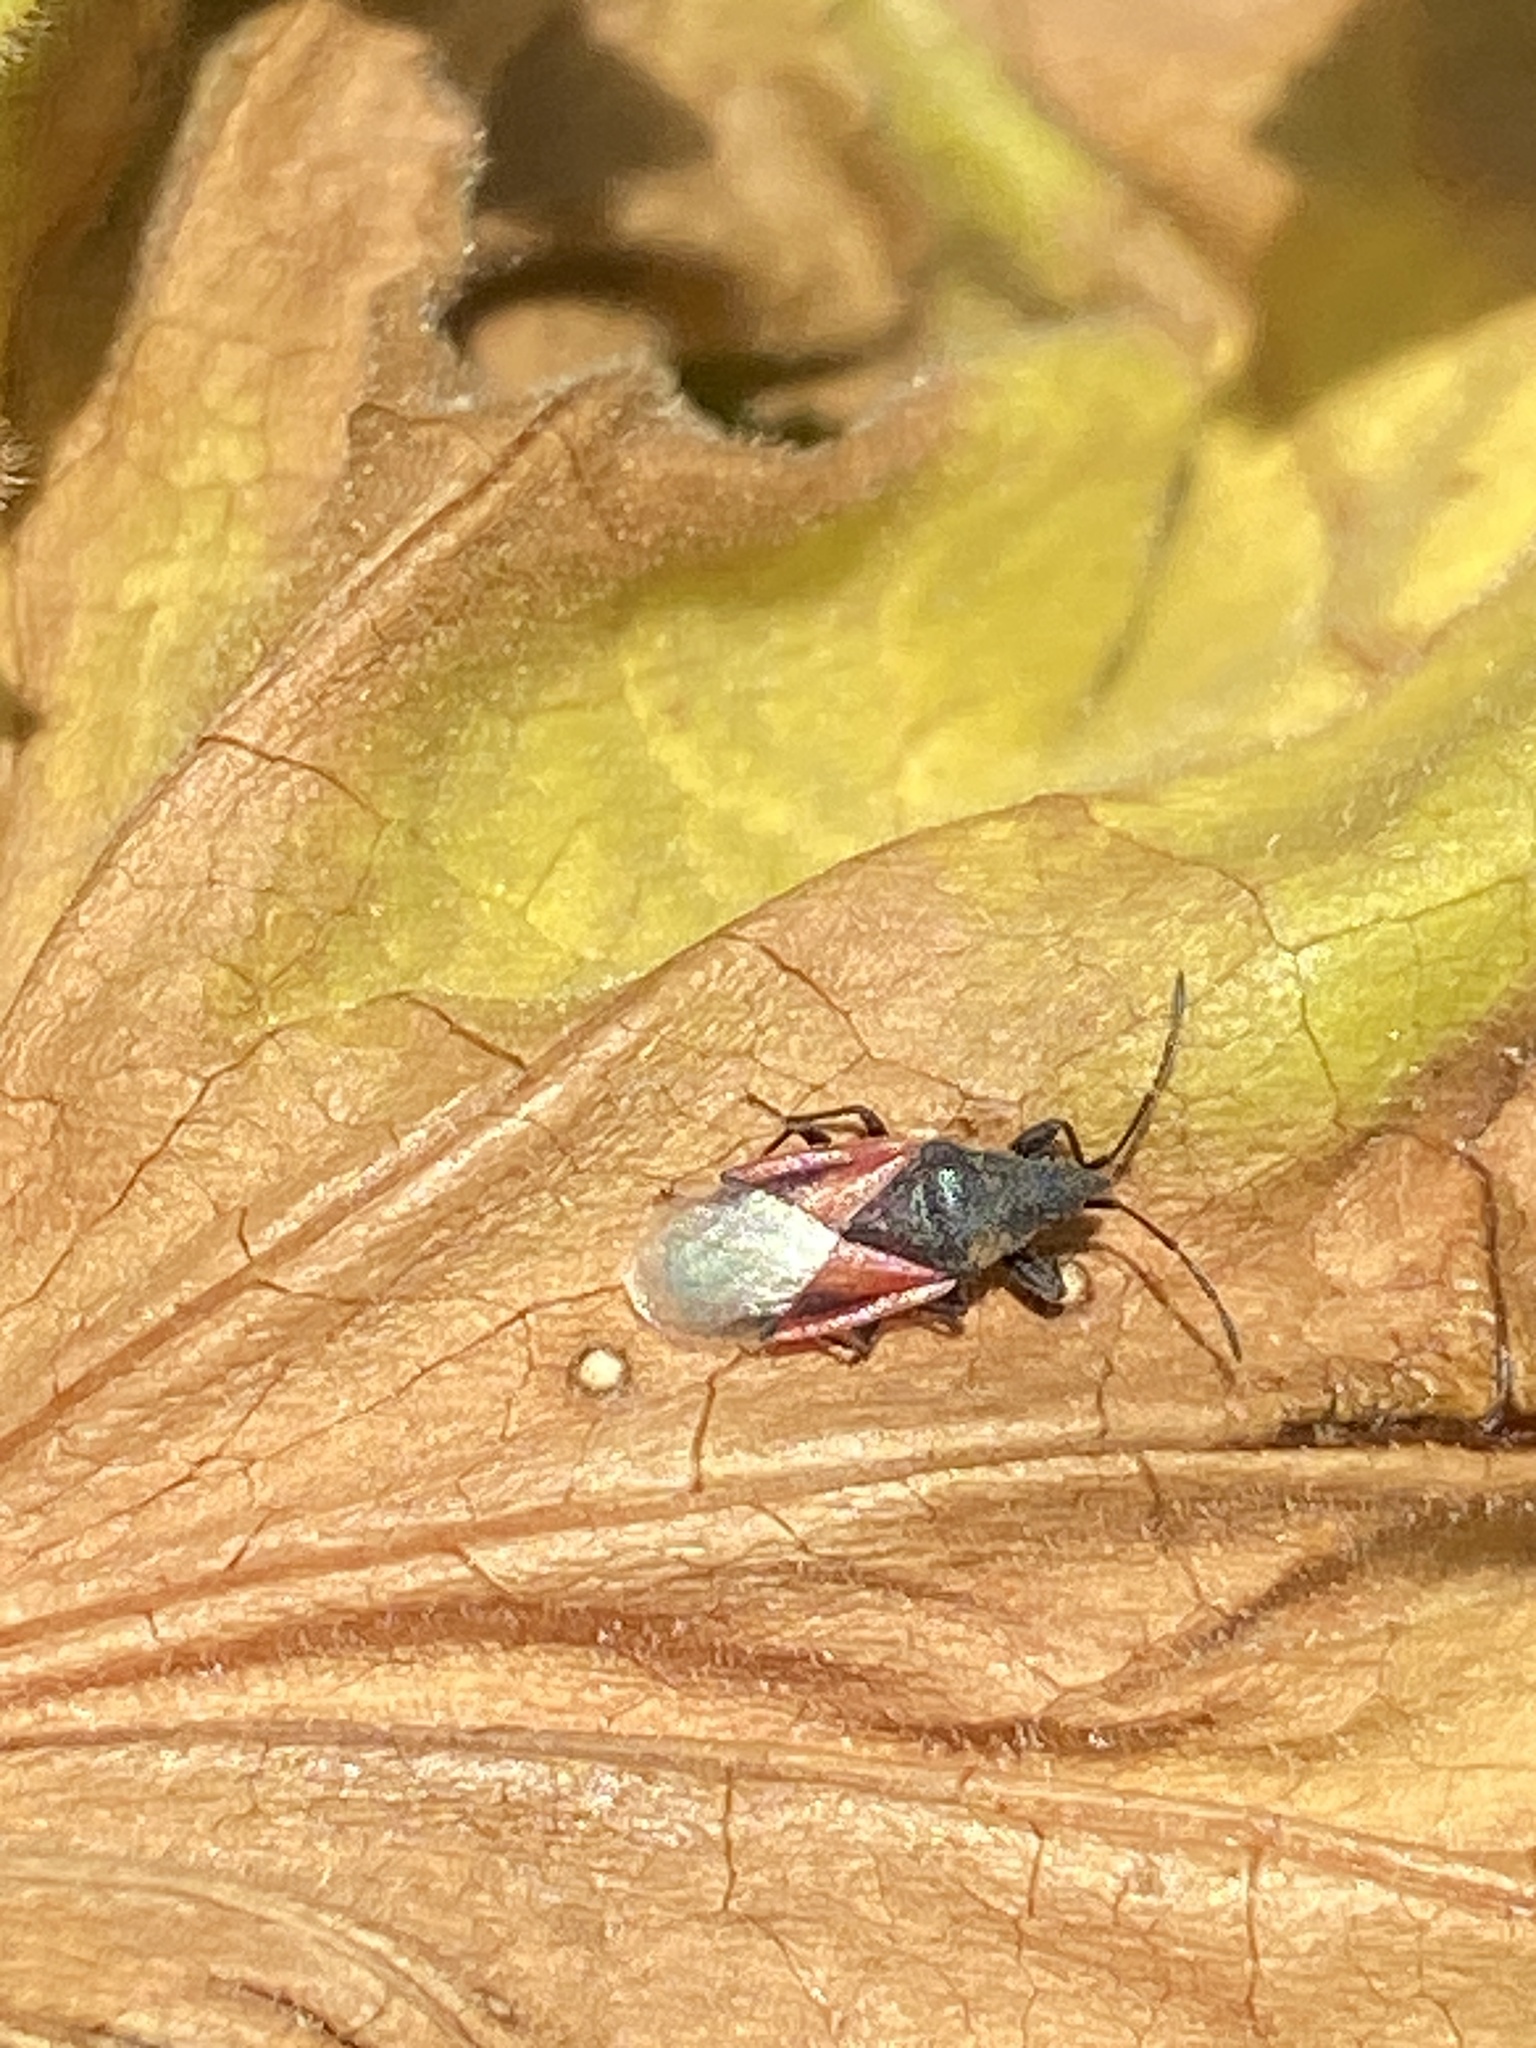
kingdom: Animalia
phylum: Arthropoda
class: Insecta
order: Hemiptera
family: Oxycarenidae
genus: Oxycarenus
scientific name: Oxycarenus lavaterae
